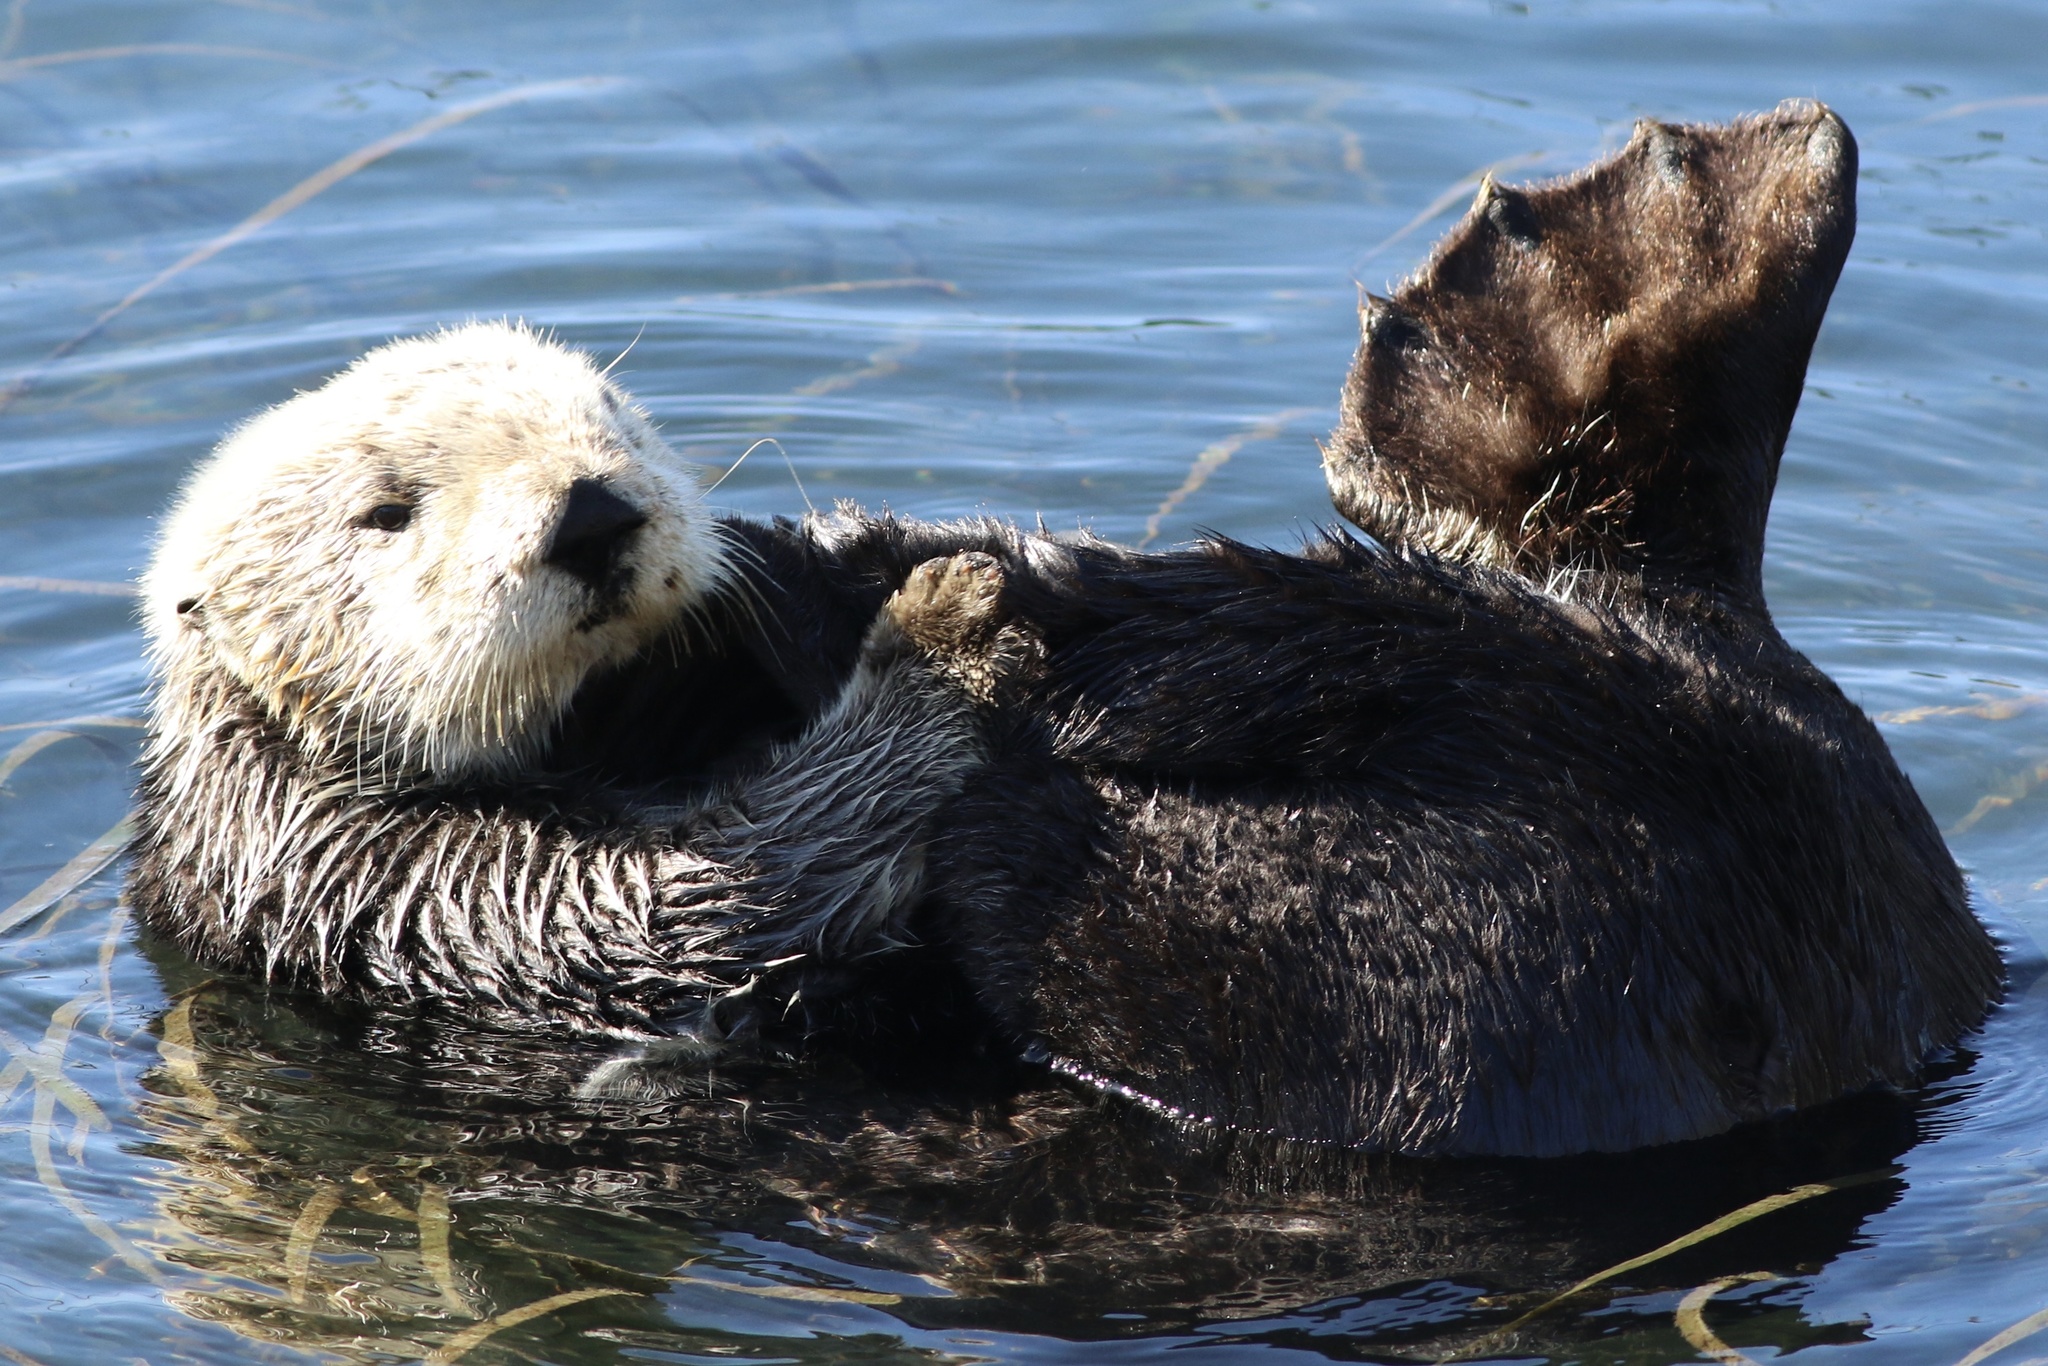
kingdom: Animalia
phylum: Chordata
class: Mammalia
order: Carnivora
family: Mustelidae
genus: Enhydra
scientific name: Enhydra lutris
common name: Sea otter
